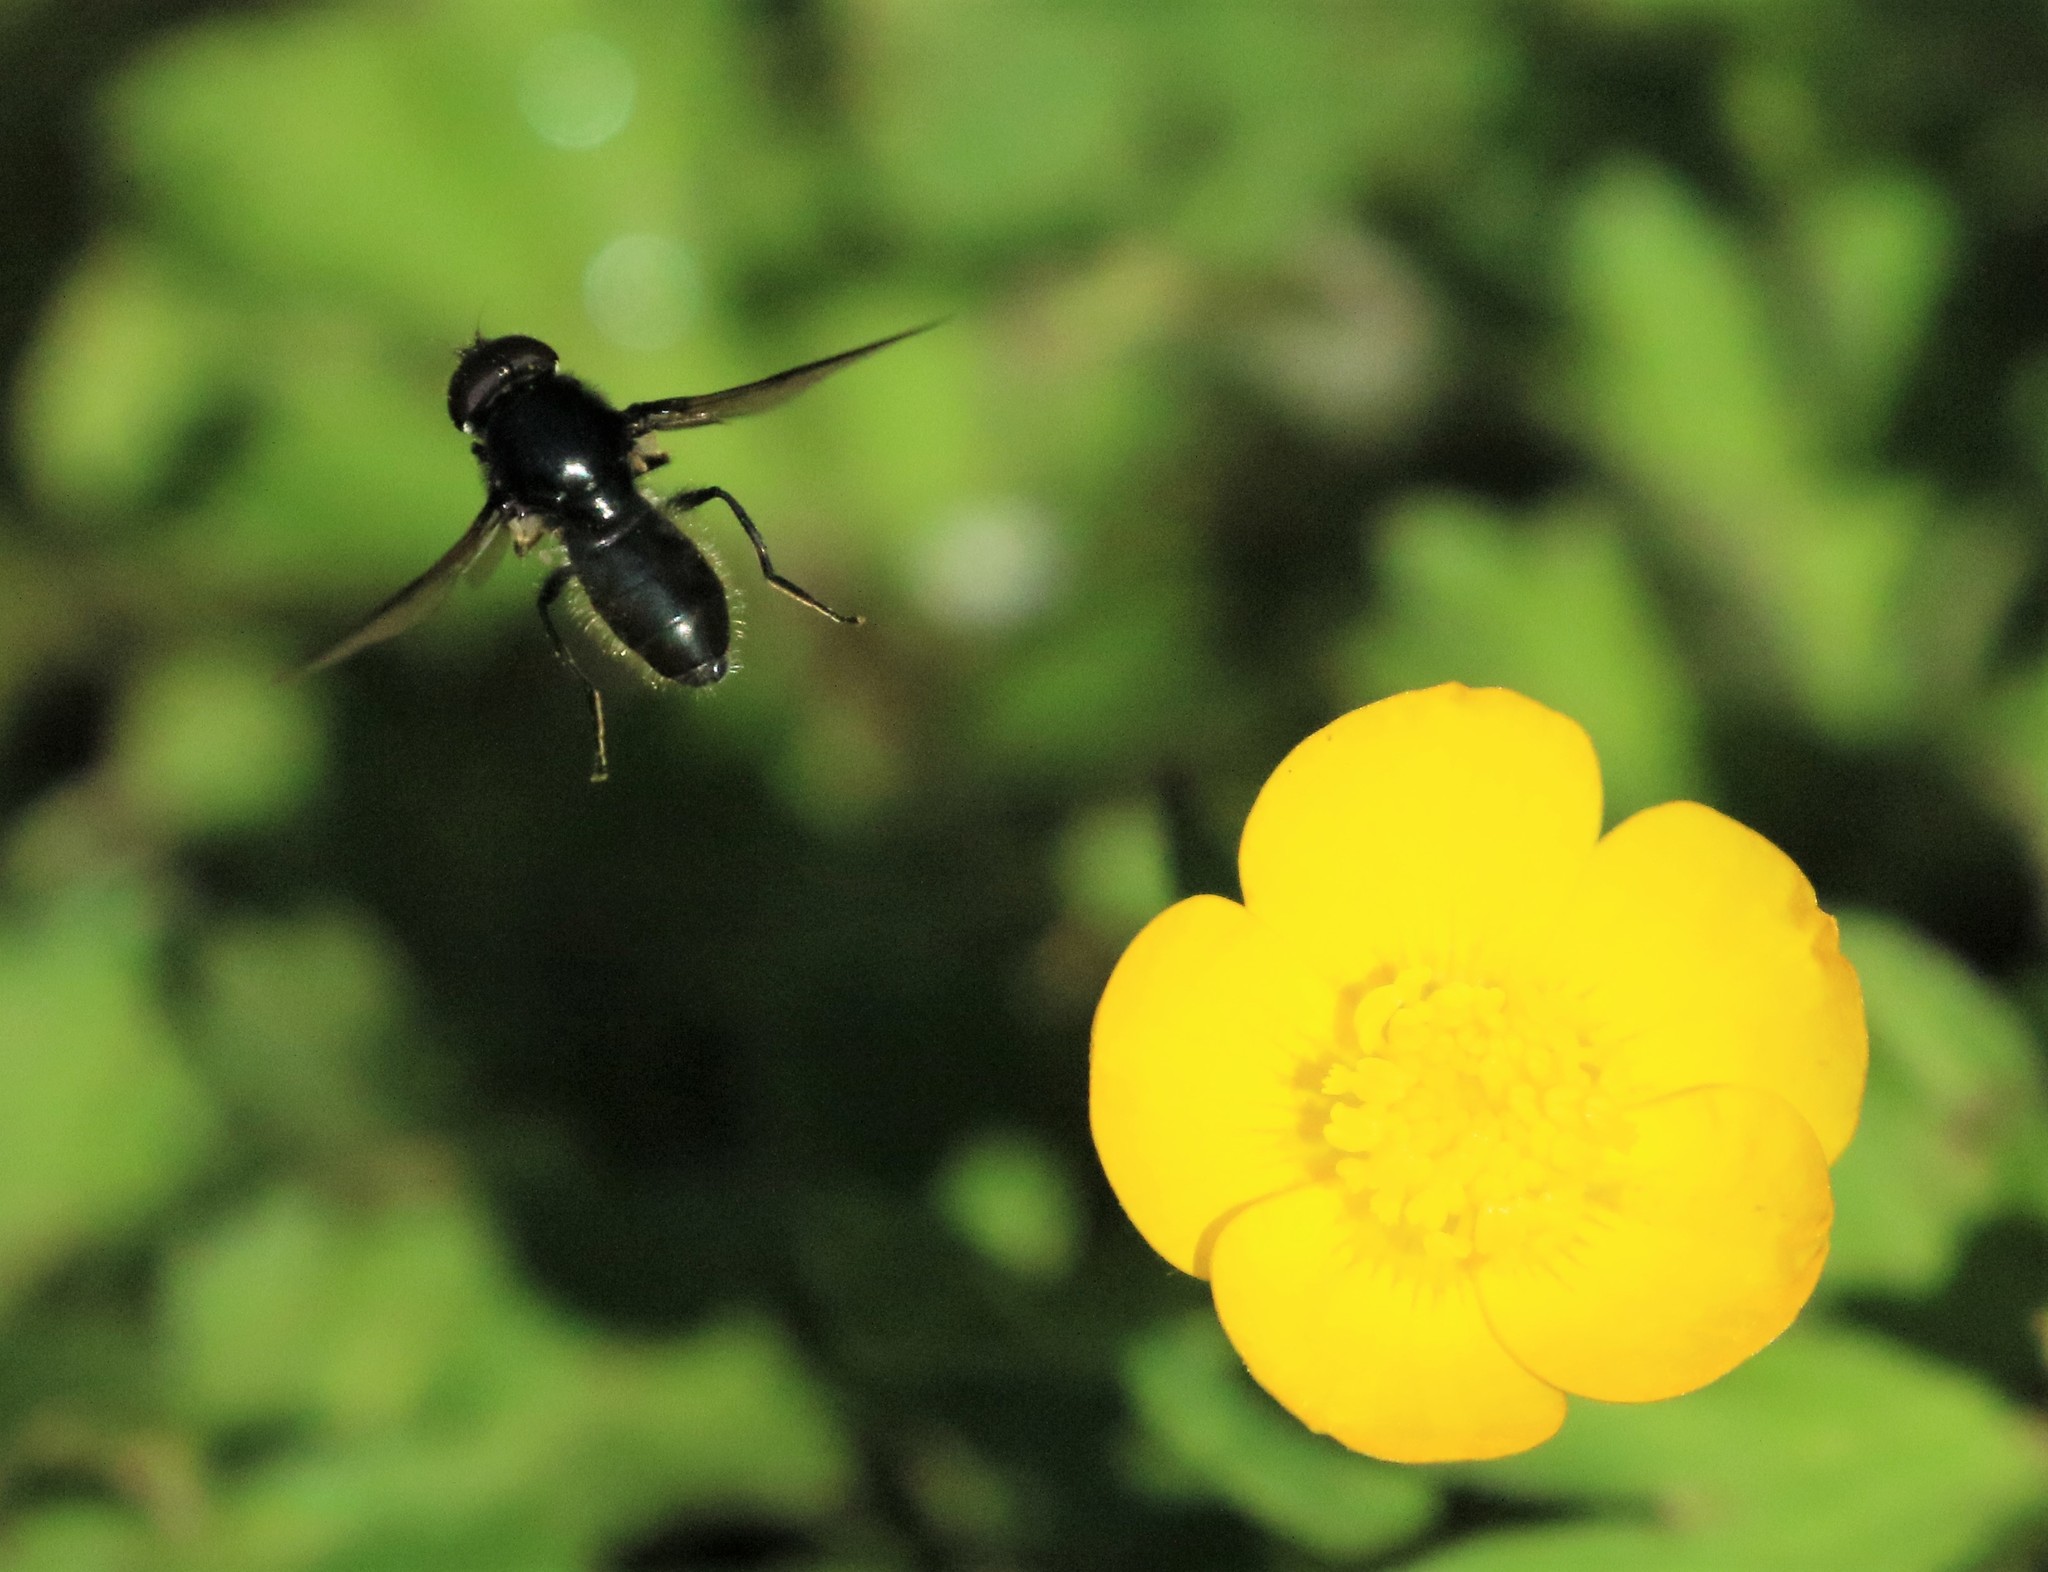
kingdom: Animalia
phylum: Arthropoda
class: Insecta
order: Diptera
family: Syrphidae
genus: Cheilosia
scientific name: Cheilosia albitarsis
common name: Buttercup blacklet
